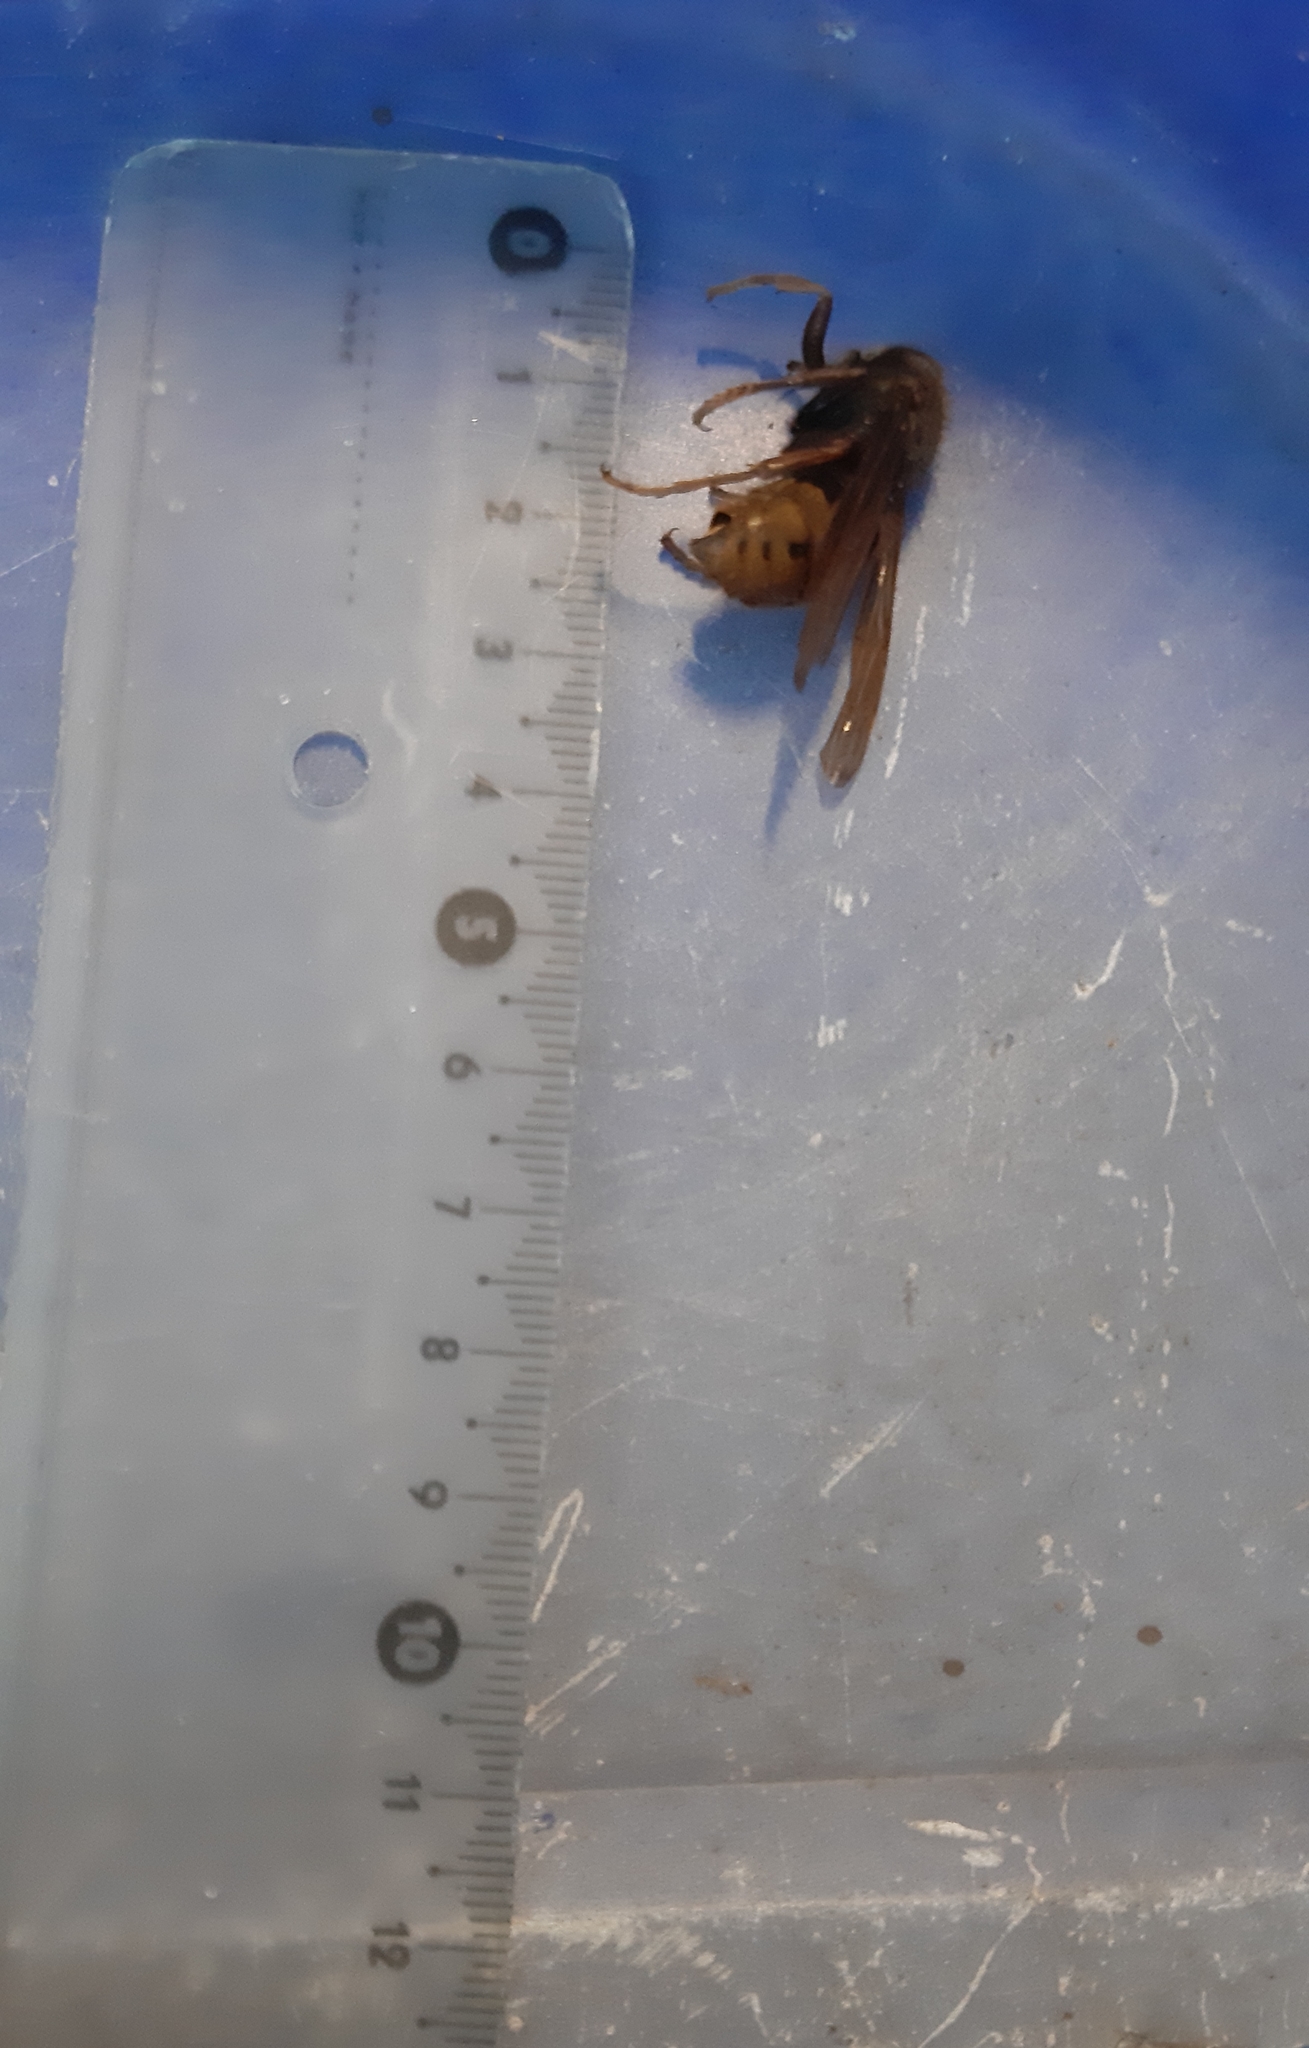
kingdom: Animalia
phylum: Arthropoda
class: Insecta
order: Hymenoptera
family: Vespidae
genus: Vespa
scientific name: Vespa crabro
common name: Hornet
